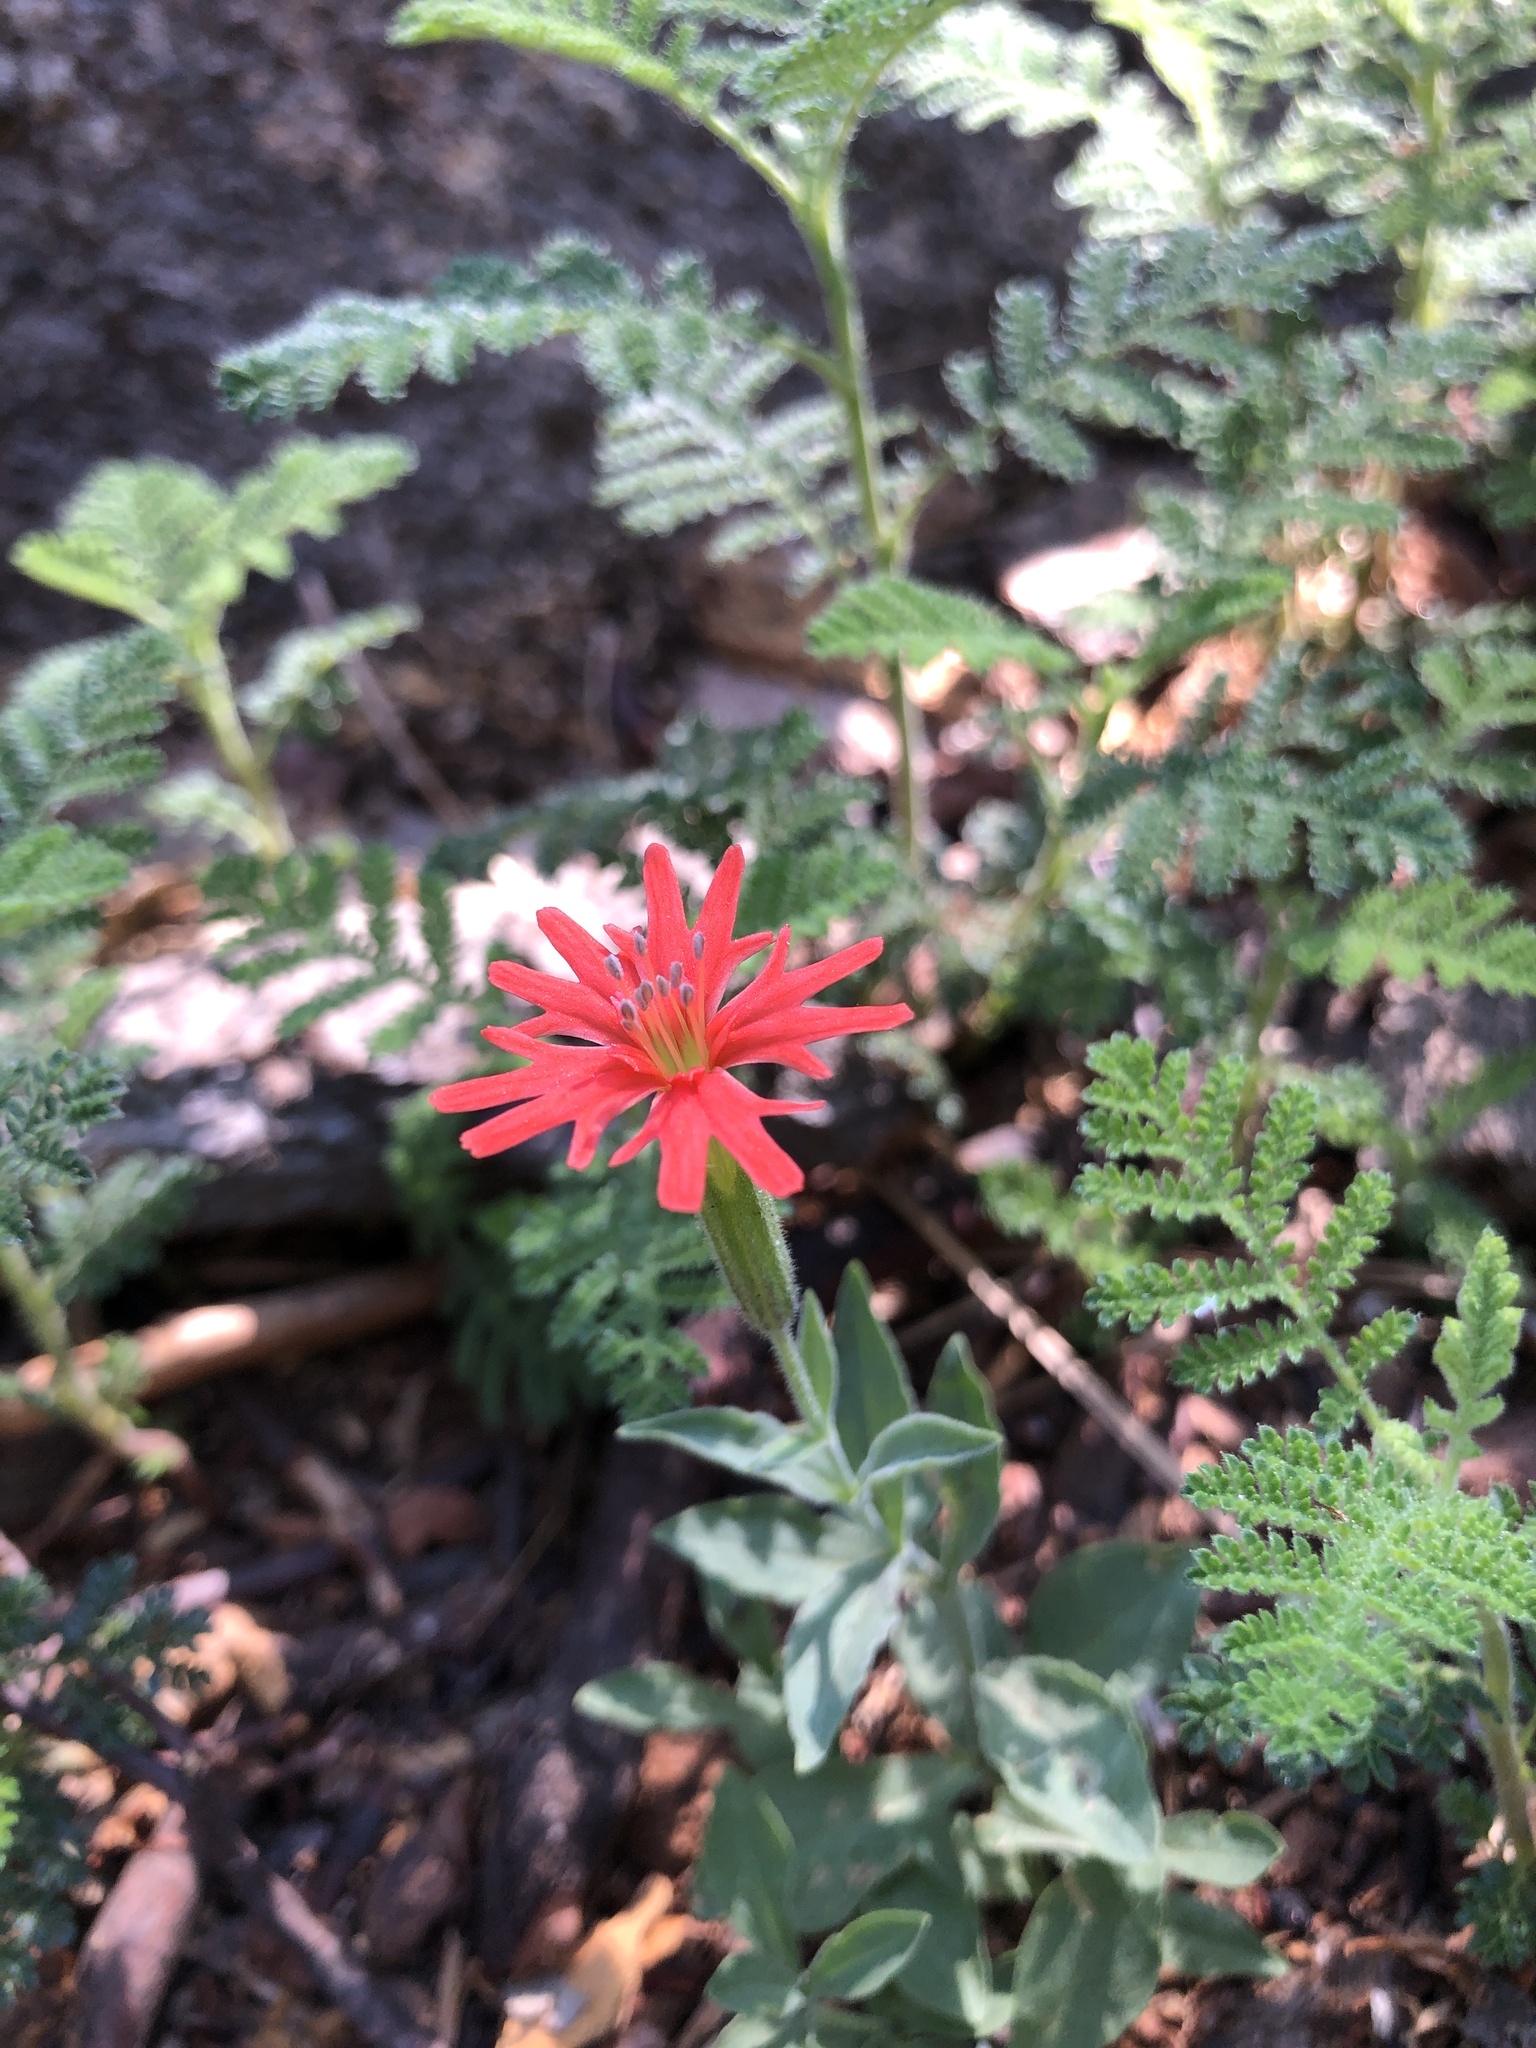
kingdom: Plantae
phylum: Tracheophyta
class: Magnoliopsida
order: Caryophyllales
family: Caryophyllaceae
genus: Silene
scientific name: Silene laciniata
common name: Indian-pink
